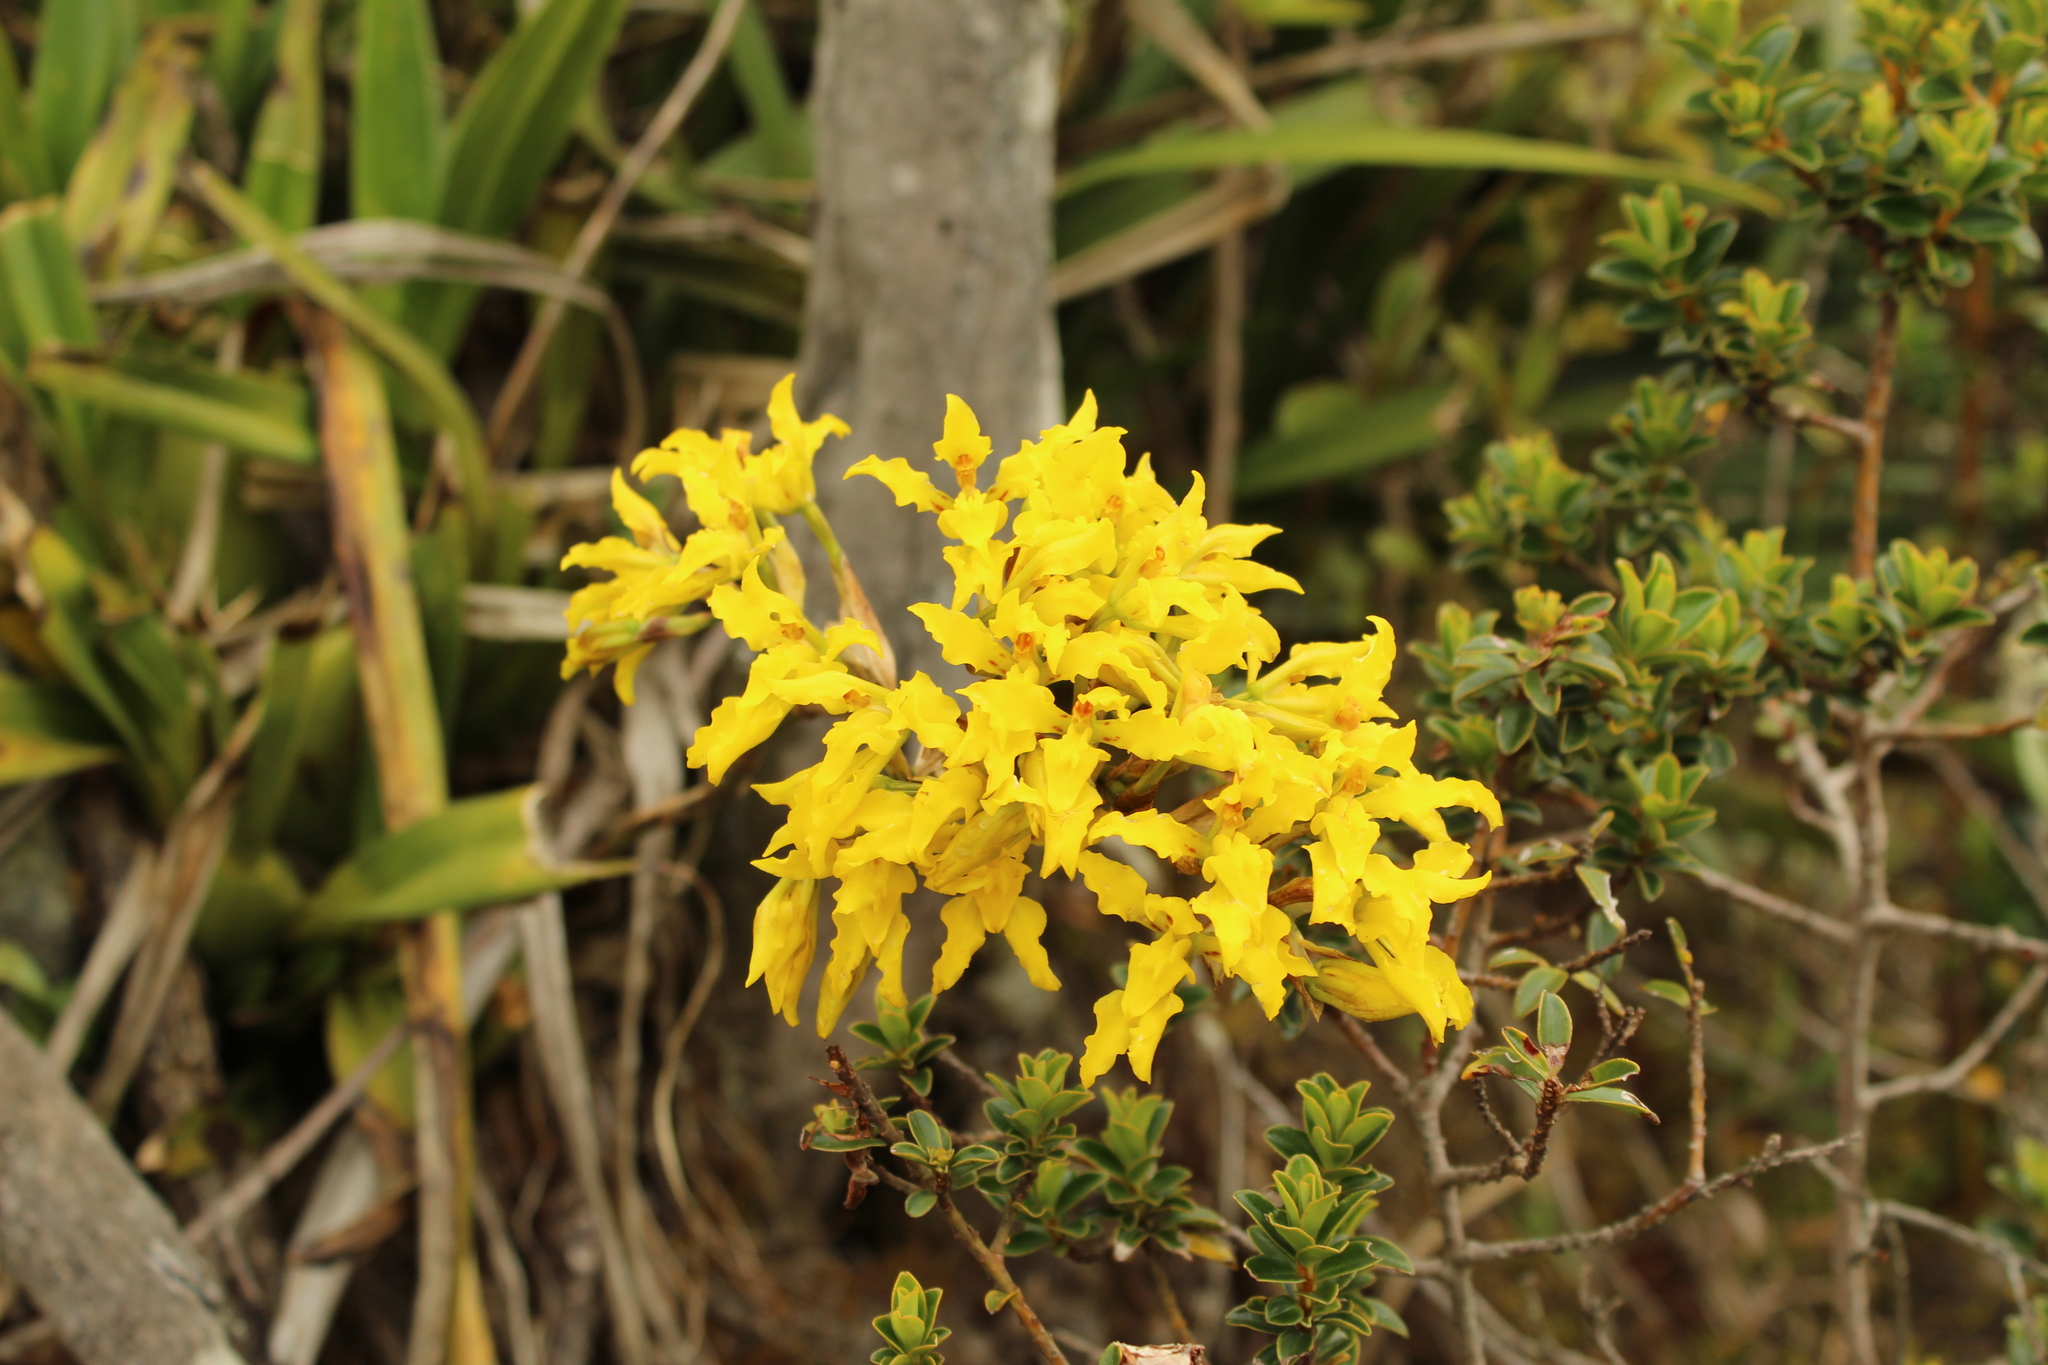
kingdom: Plantae
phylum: Tracheophyta
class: Liliopsida
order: Asparagales
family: Orchidaceae
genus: Cyrtochilum
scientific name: Cyrtochilum revolutum
